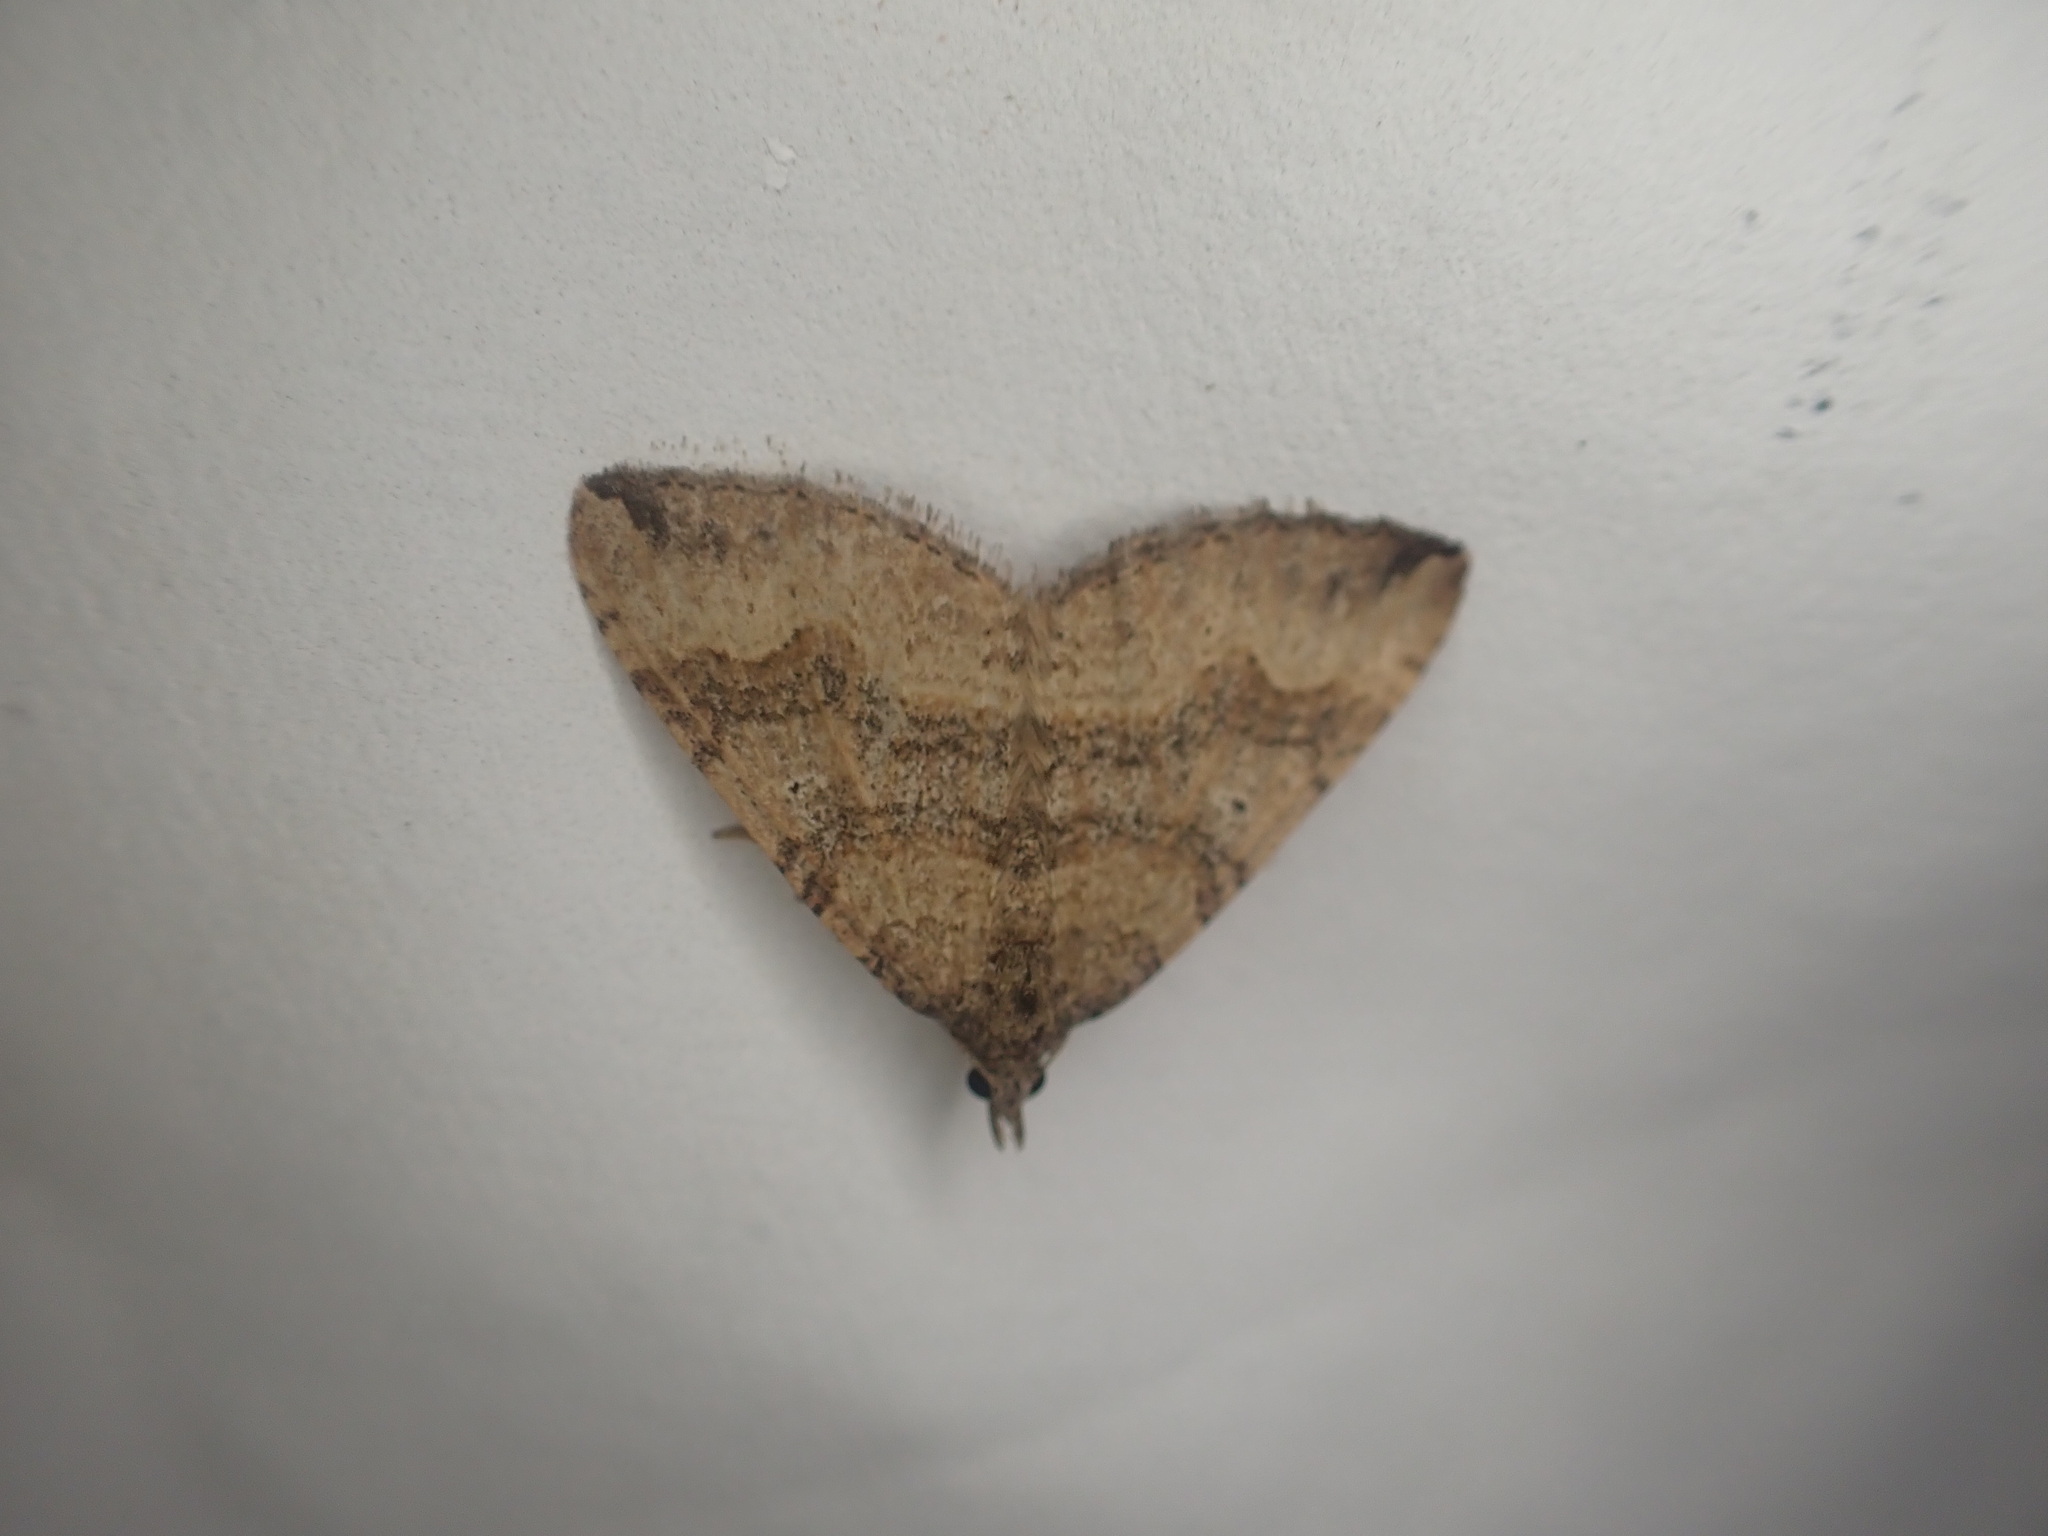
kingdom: Animalia
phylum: Arthropoda
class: Insecta
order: Lepidoptera
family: Geometridae
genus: Epyaxa
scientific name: Epyaxa rosearia
